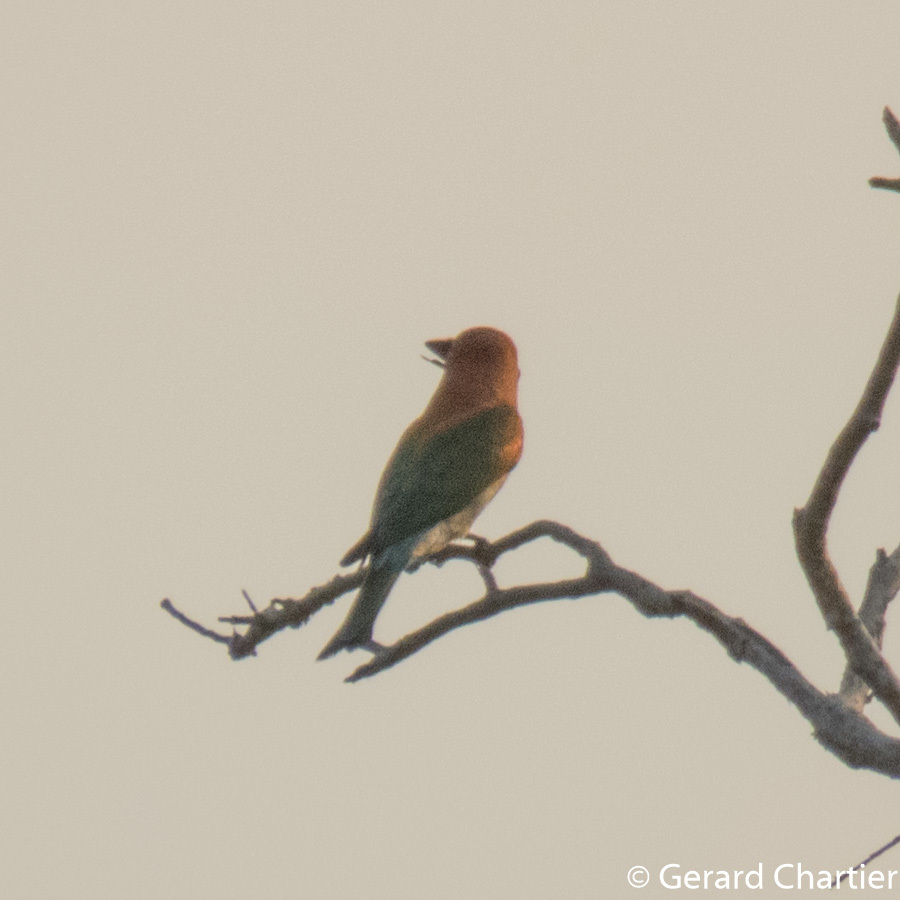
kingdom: Animalia
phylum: Chordata
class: Aves
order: Coraciiformes
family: Meropidae
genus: Merops
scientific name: Merops leschenaulti
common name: Chestnut-headed bee-eater
